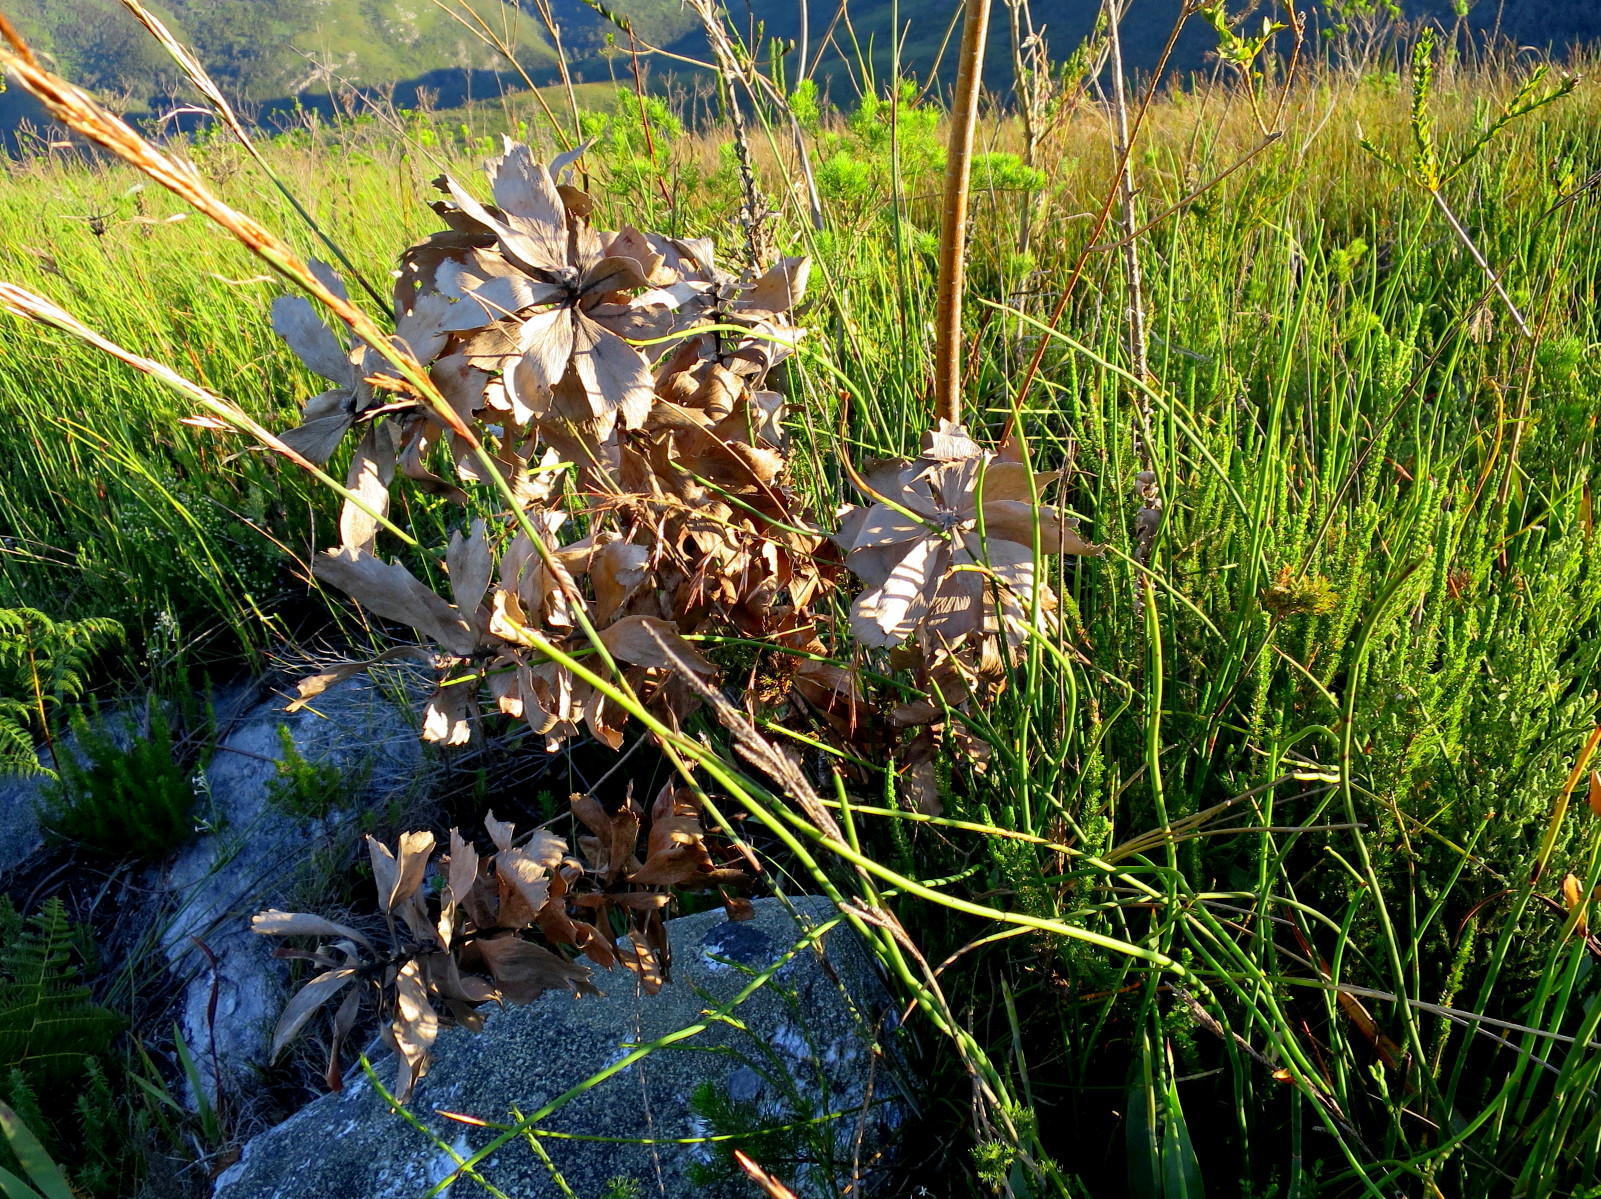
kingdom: Plantae
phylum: Tracheophyta
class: Magnoliopsida
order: Proteales
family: Proteaceae
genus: Leucospermum
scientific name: Leucospermum glabrum
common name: Outeniqua pincushion
